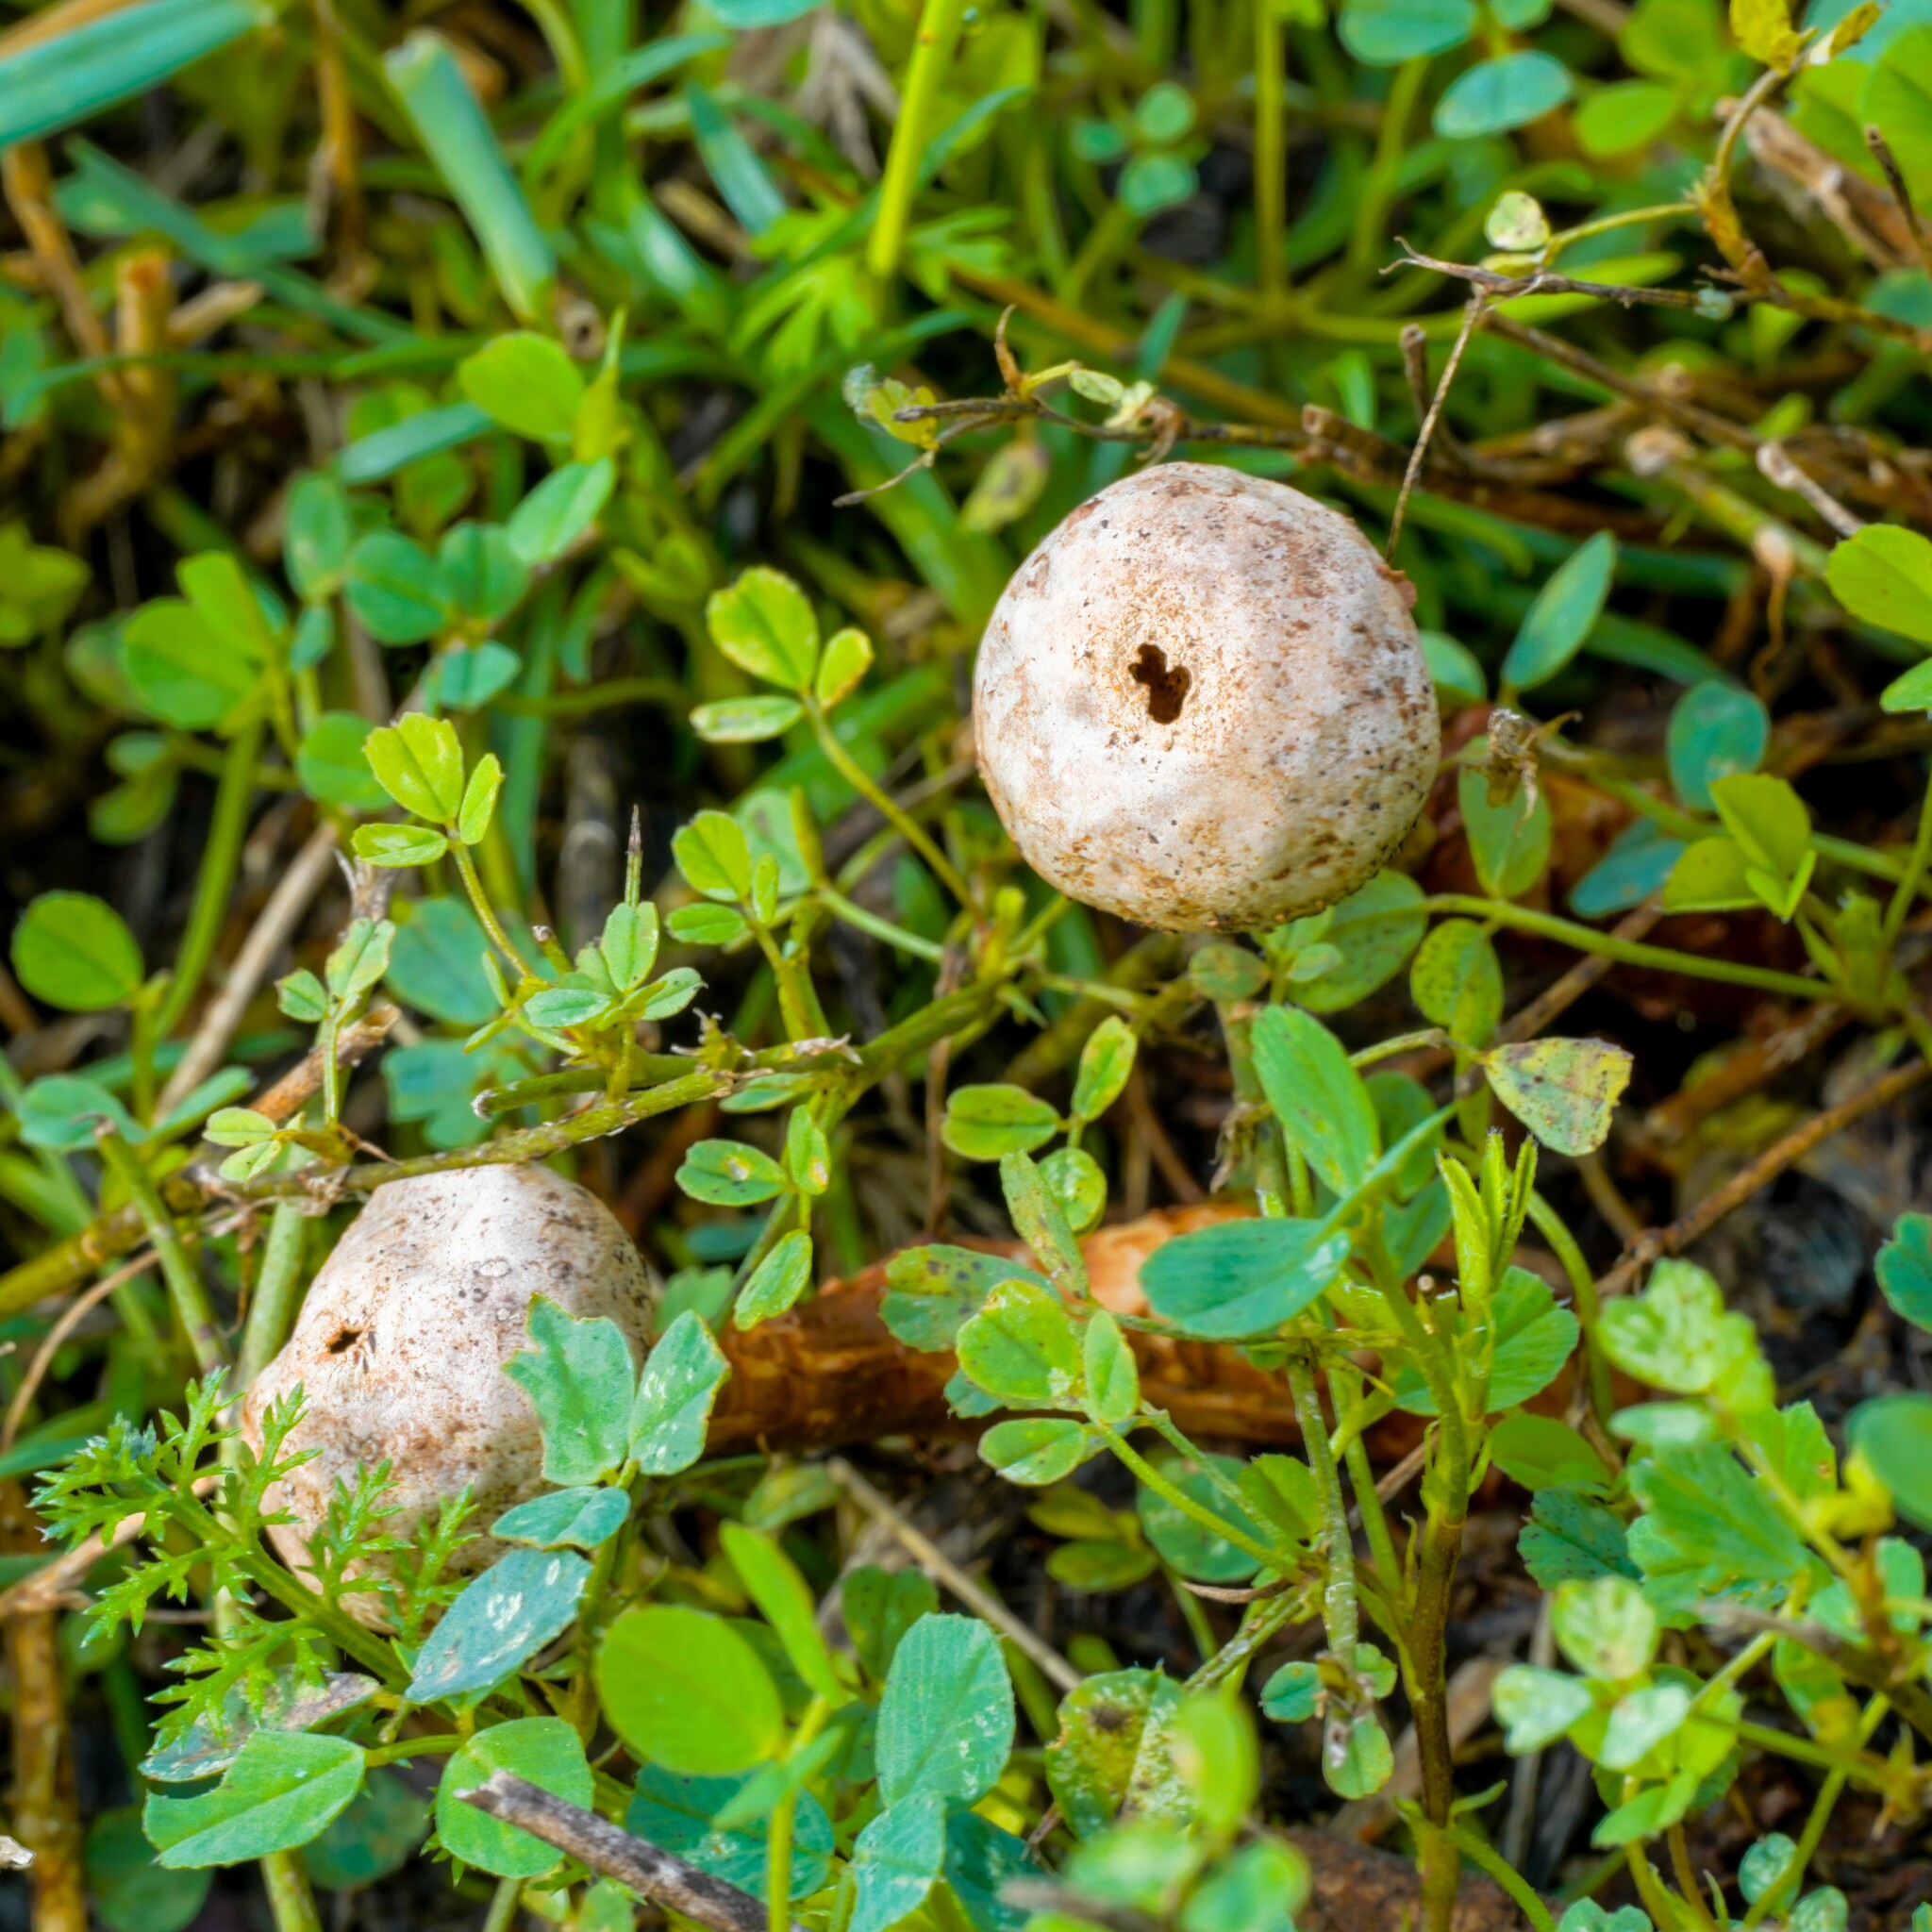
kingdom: Fungi
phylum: Basidiomycota
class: Agaricomycetes
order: Agaricales
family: Agaricaceae
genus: Tulostoma
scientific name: Tulostoma winterhoffii
